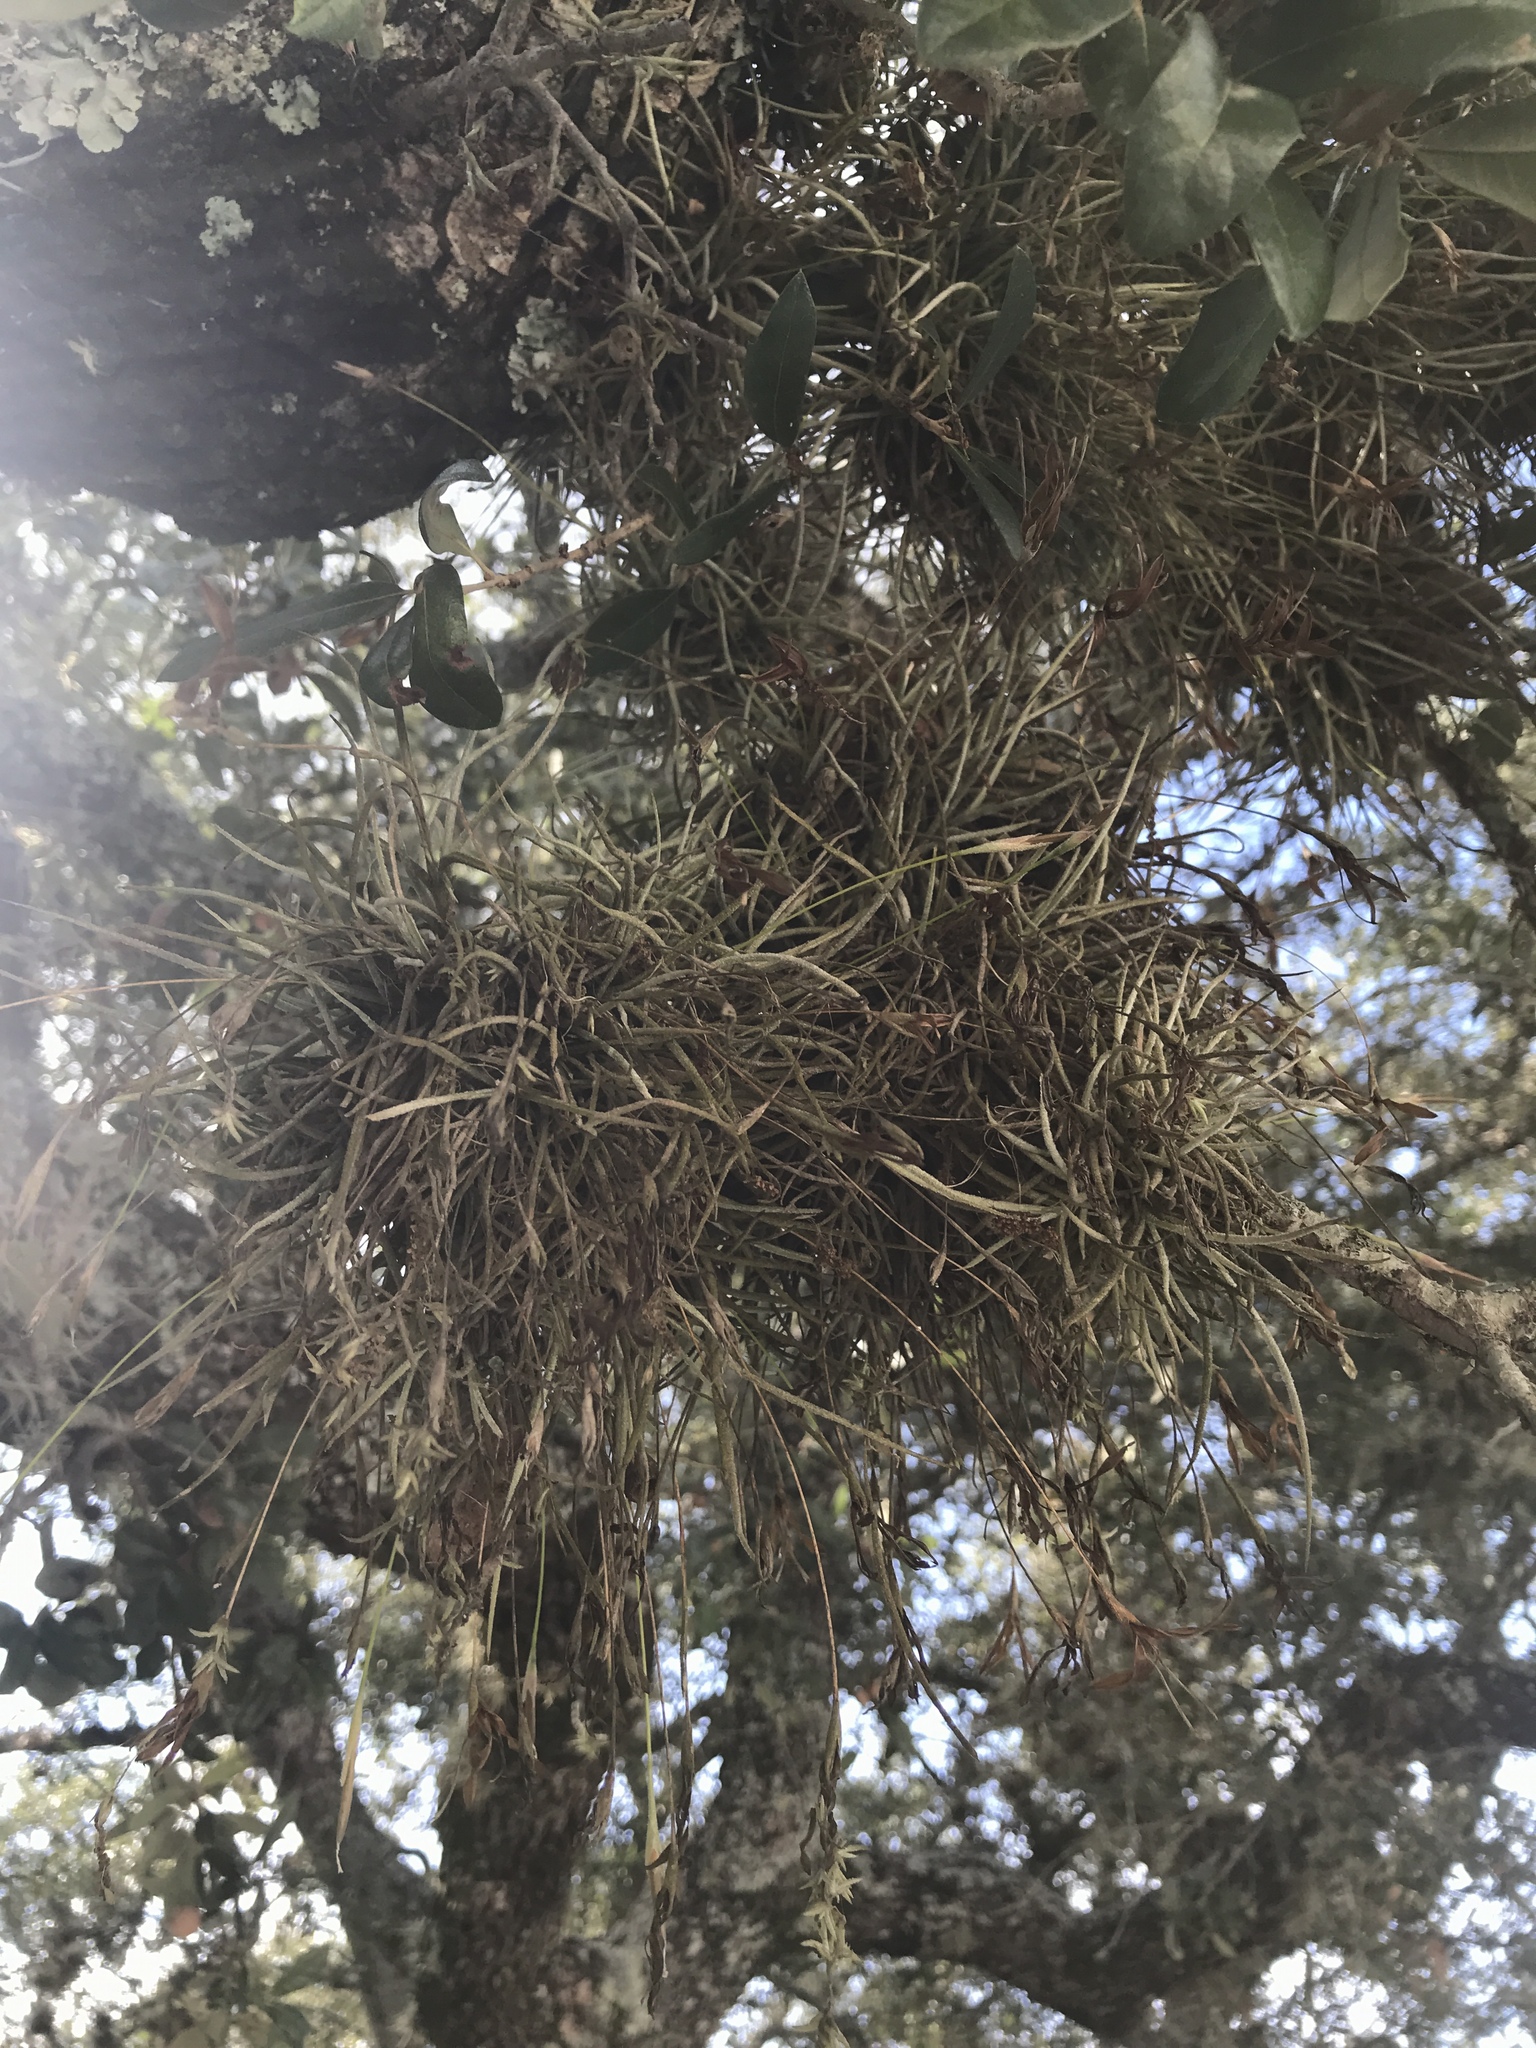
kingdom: Plantae
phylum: Tracheophyta
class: Liliopsida
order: Poales
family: Bromeliaceae
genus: Tillandsia
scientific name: Tillandsia recurvata
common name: Small ballmoss
